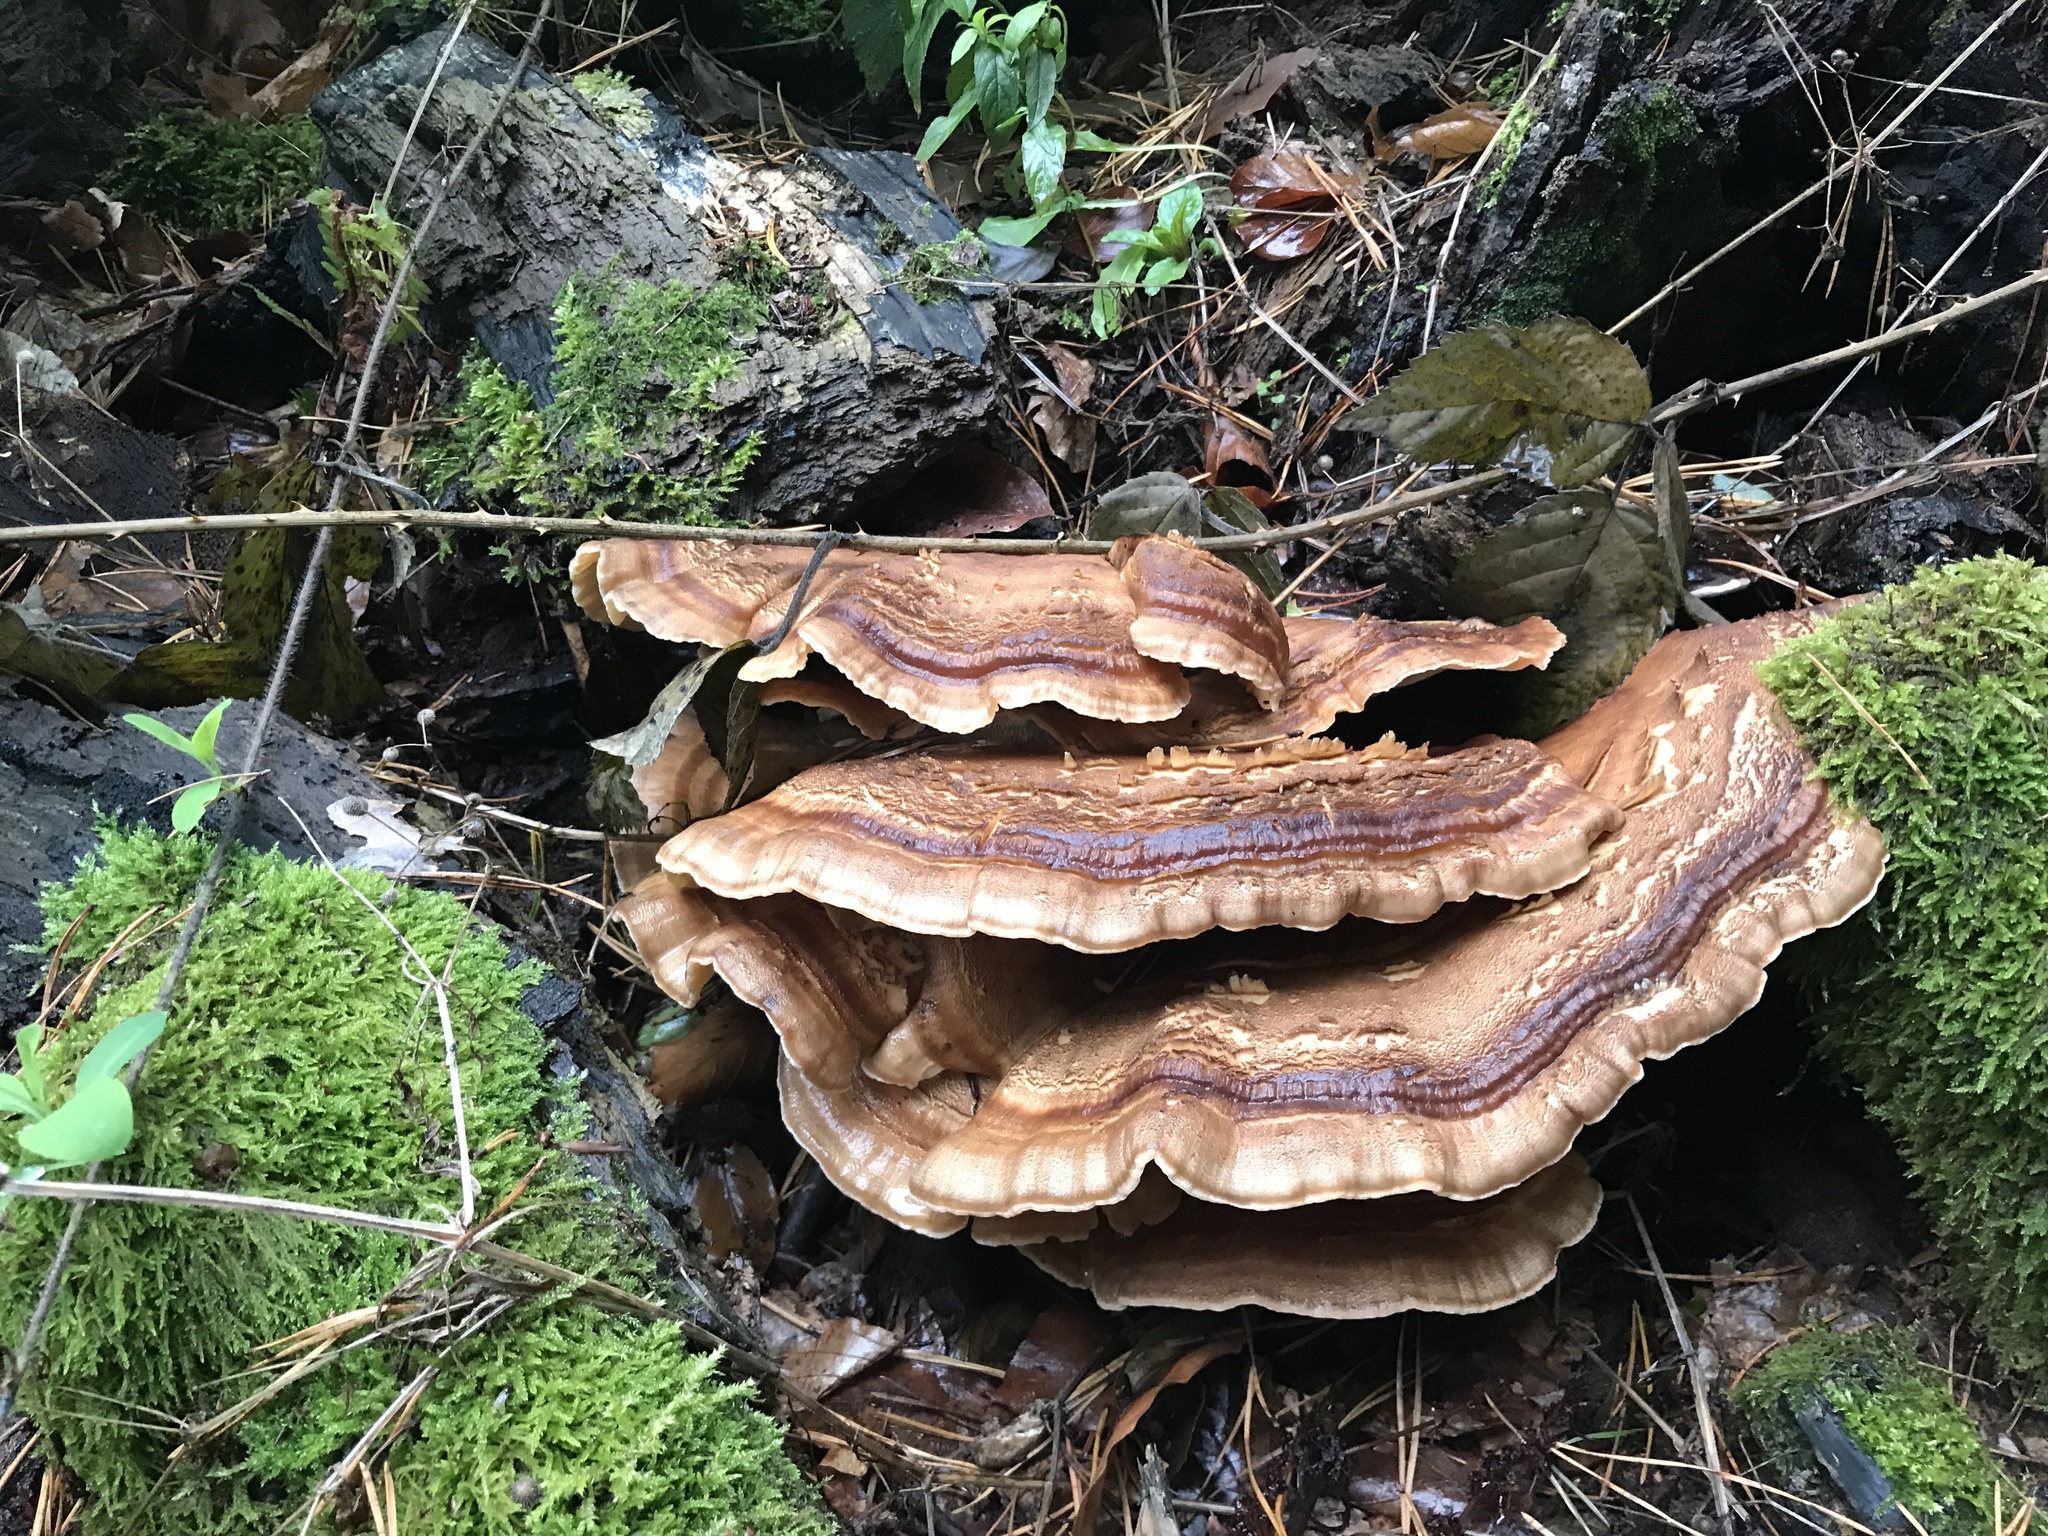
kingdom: Fungi
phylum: Basidiomycota
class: Agaricomycetes
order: Polyporales
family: Meripilaceae
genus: Meripilus
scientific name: Meripilus giganteus
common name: Giant polypore
